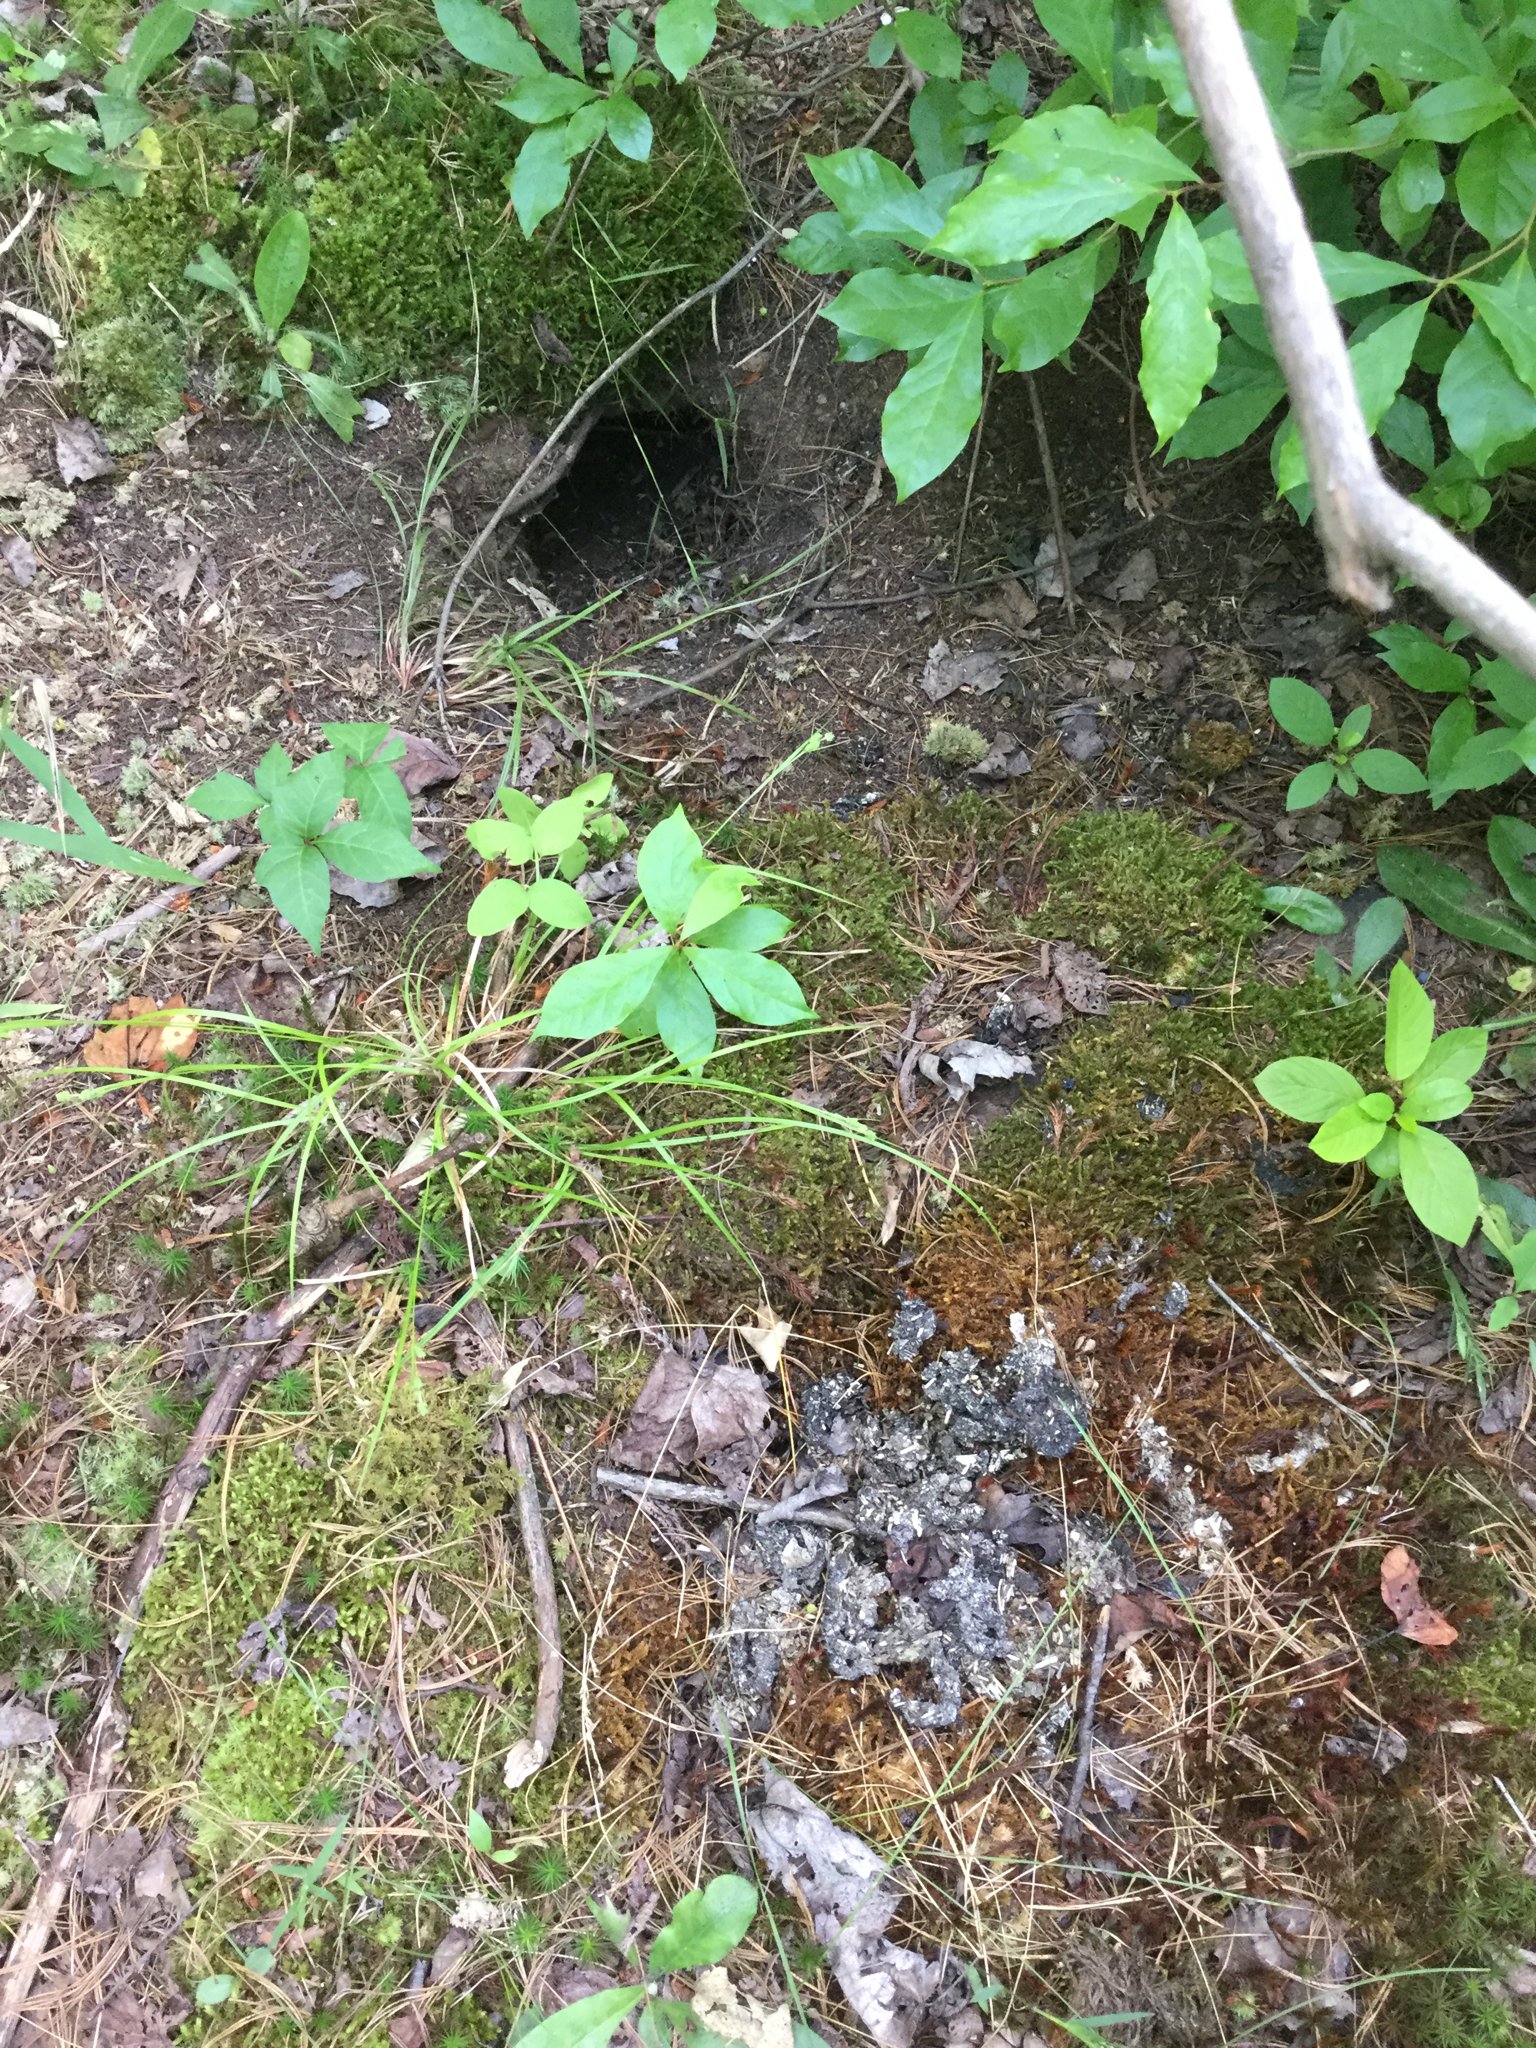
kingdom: Animalia
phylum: Chordata
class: Mammalia
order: Carnivora
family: Mustelidae
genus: Mustela
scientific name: Mustela
